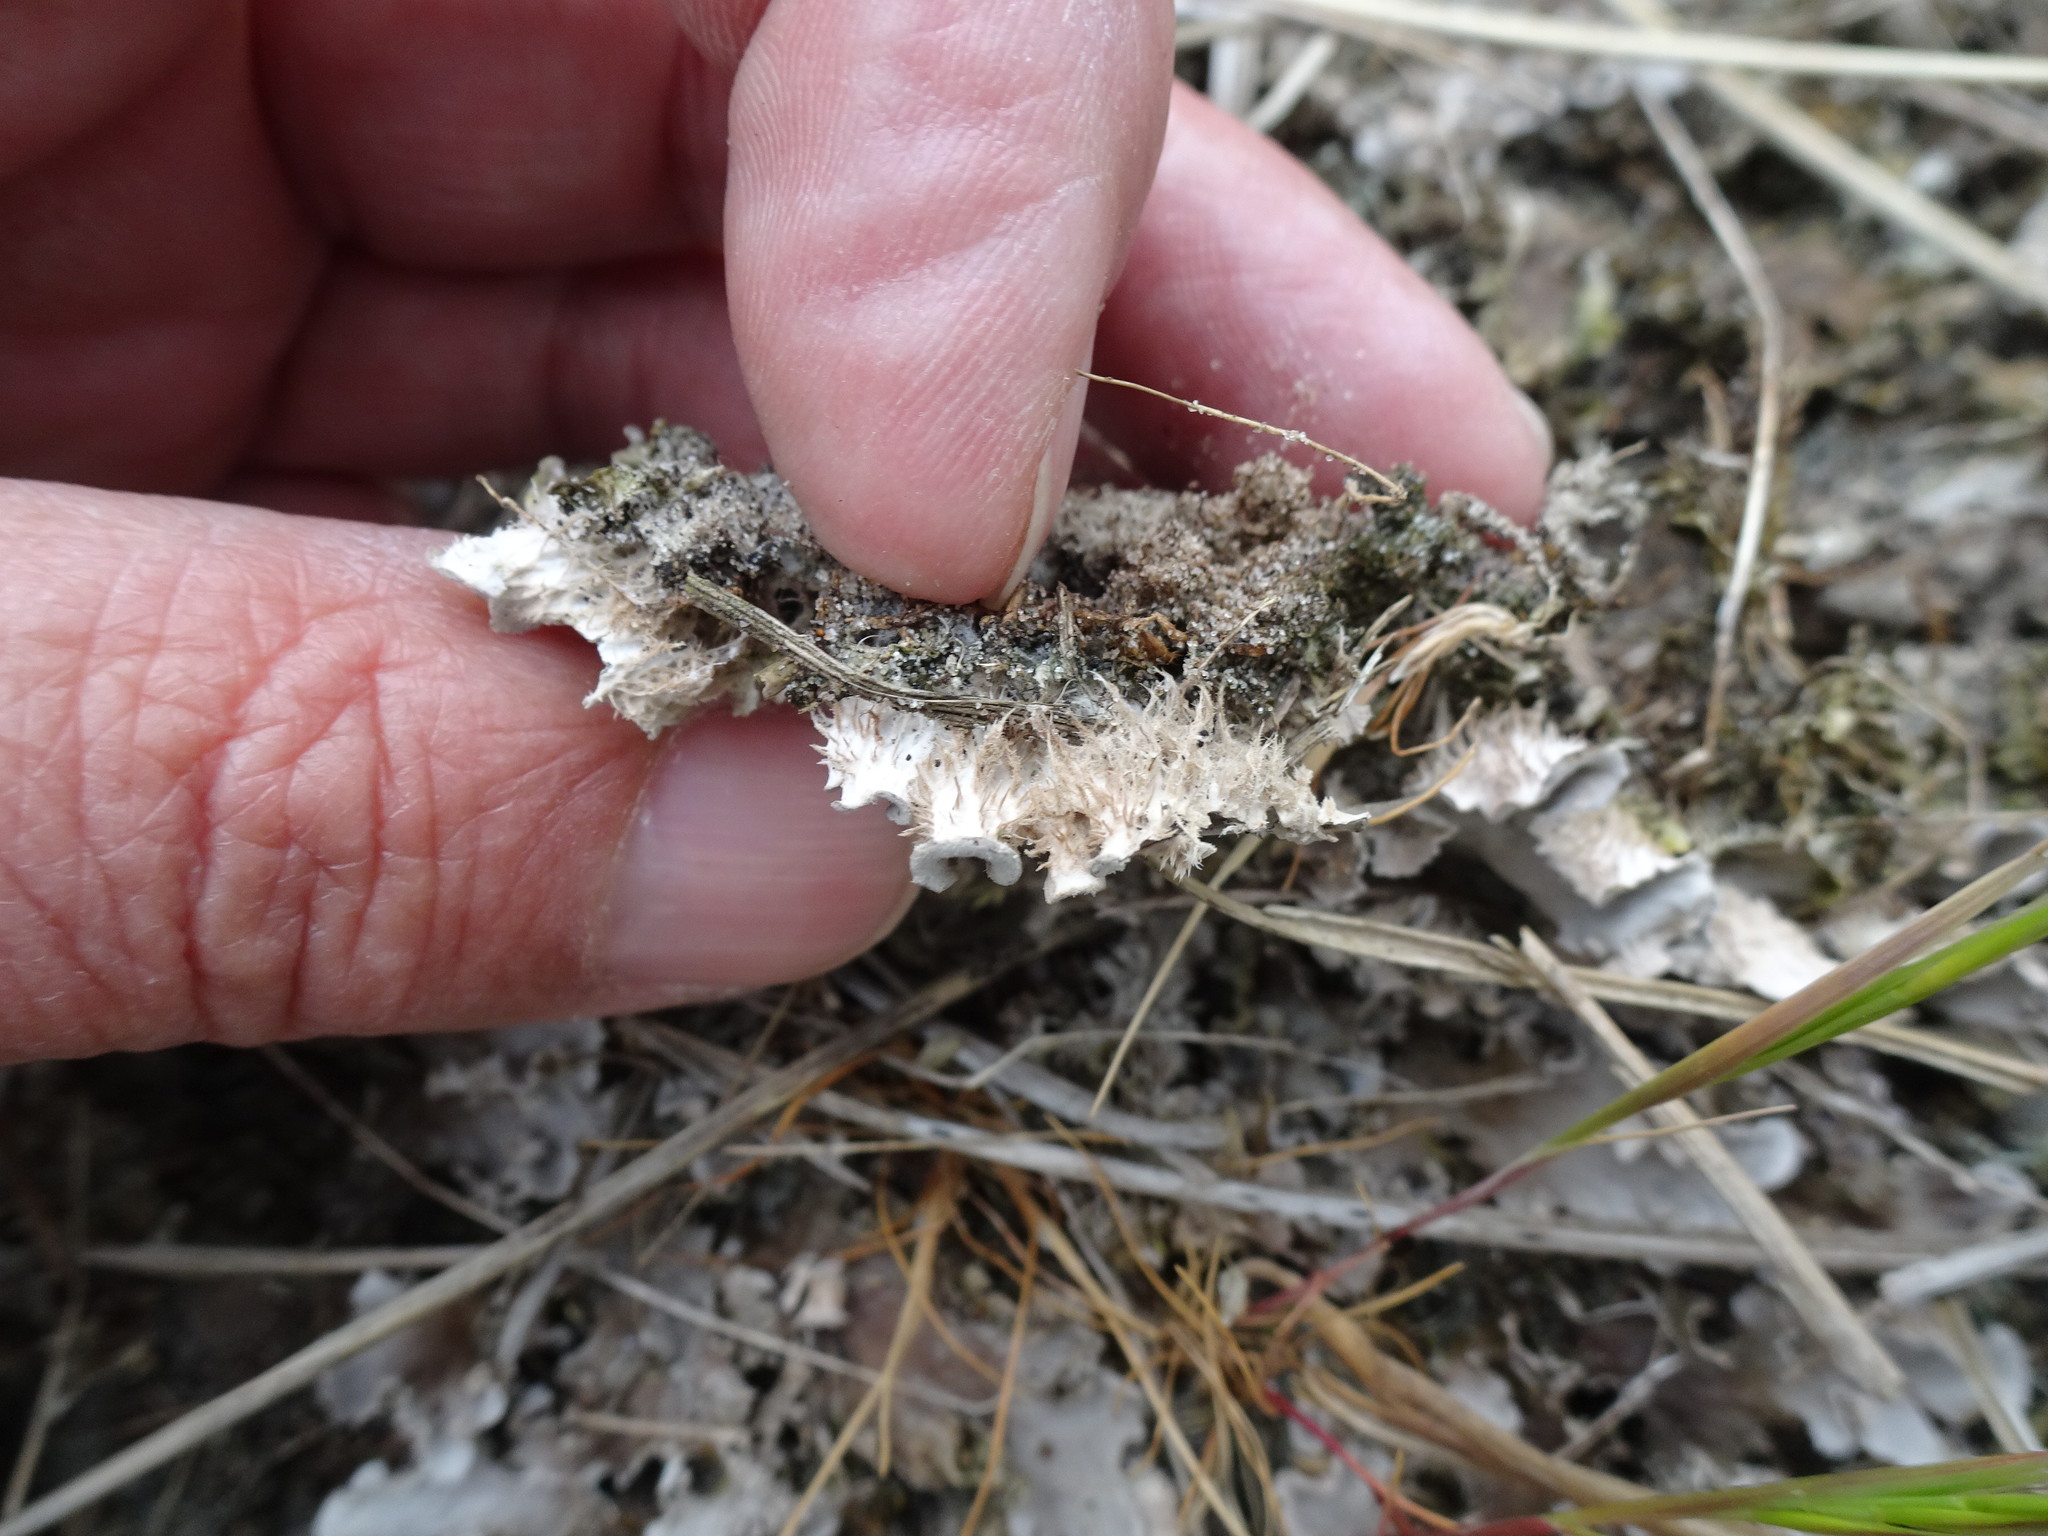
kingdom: Fungi
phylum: Ascomycota
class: Lecanoromycetes
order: Peltigerales
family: Peltigeraceae
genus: Peltigera
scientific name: Peltigera rufescens
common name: Field dog lichen
